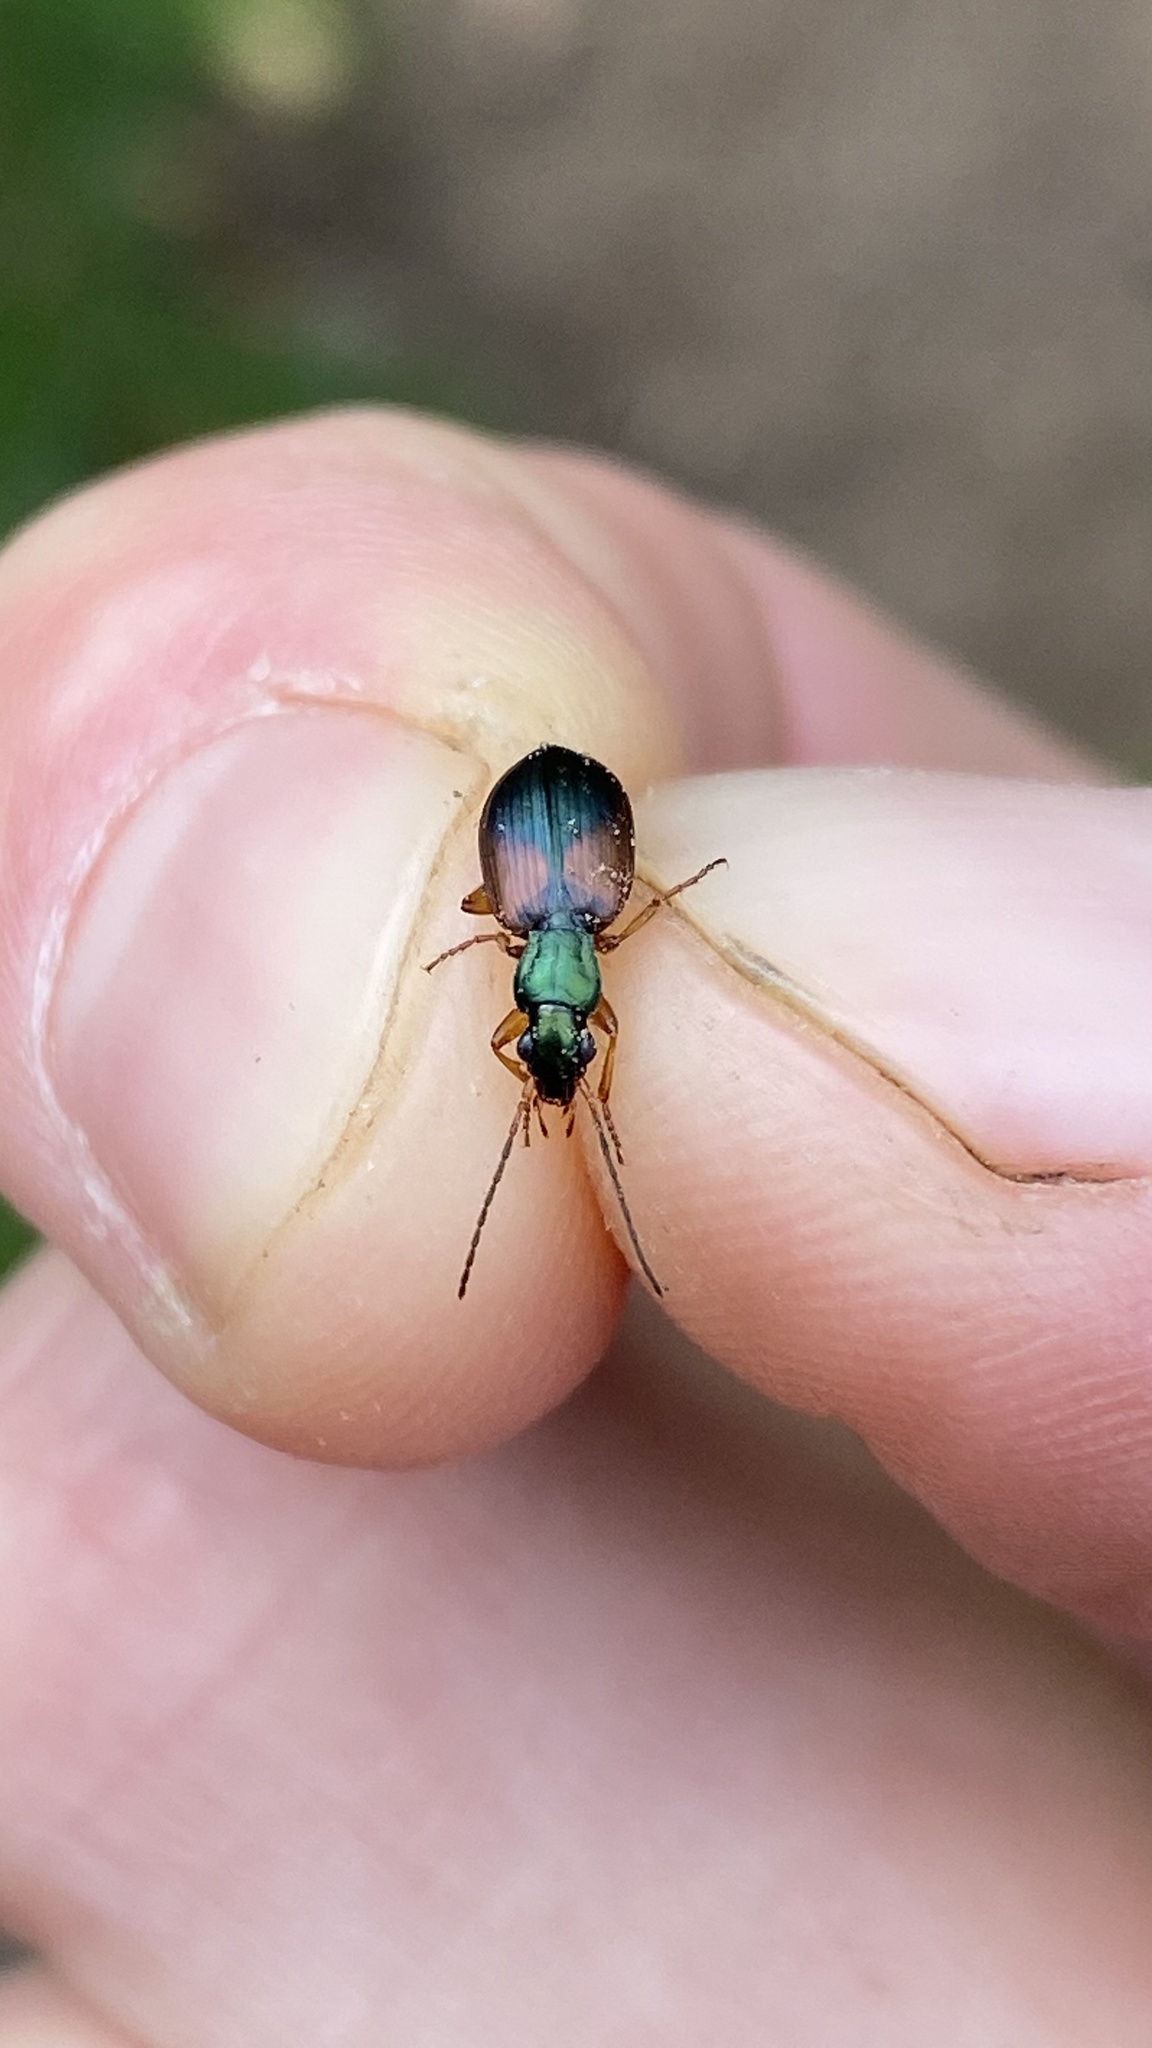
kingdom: Animalia
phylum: Arthropoda
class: Insecta
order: Coleoptera
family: Carabidae
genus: Anchomenus
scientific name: Anchomenus dorsalis
